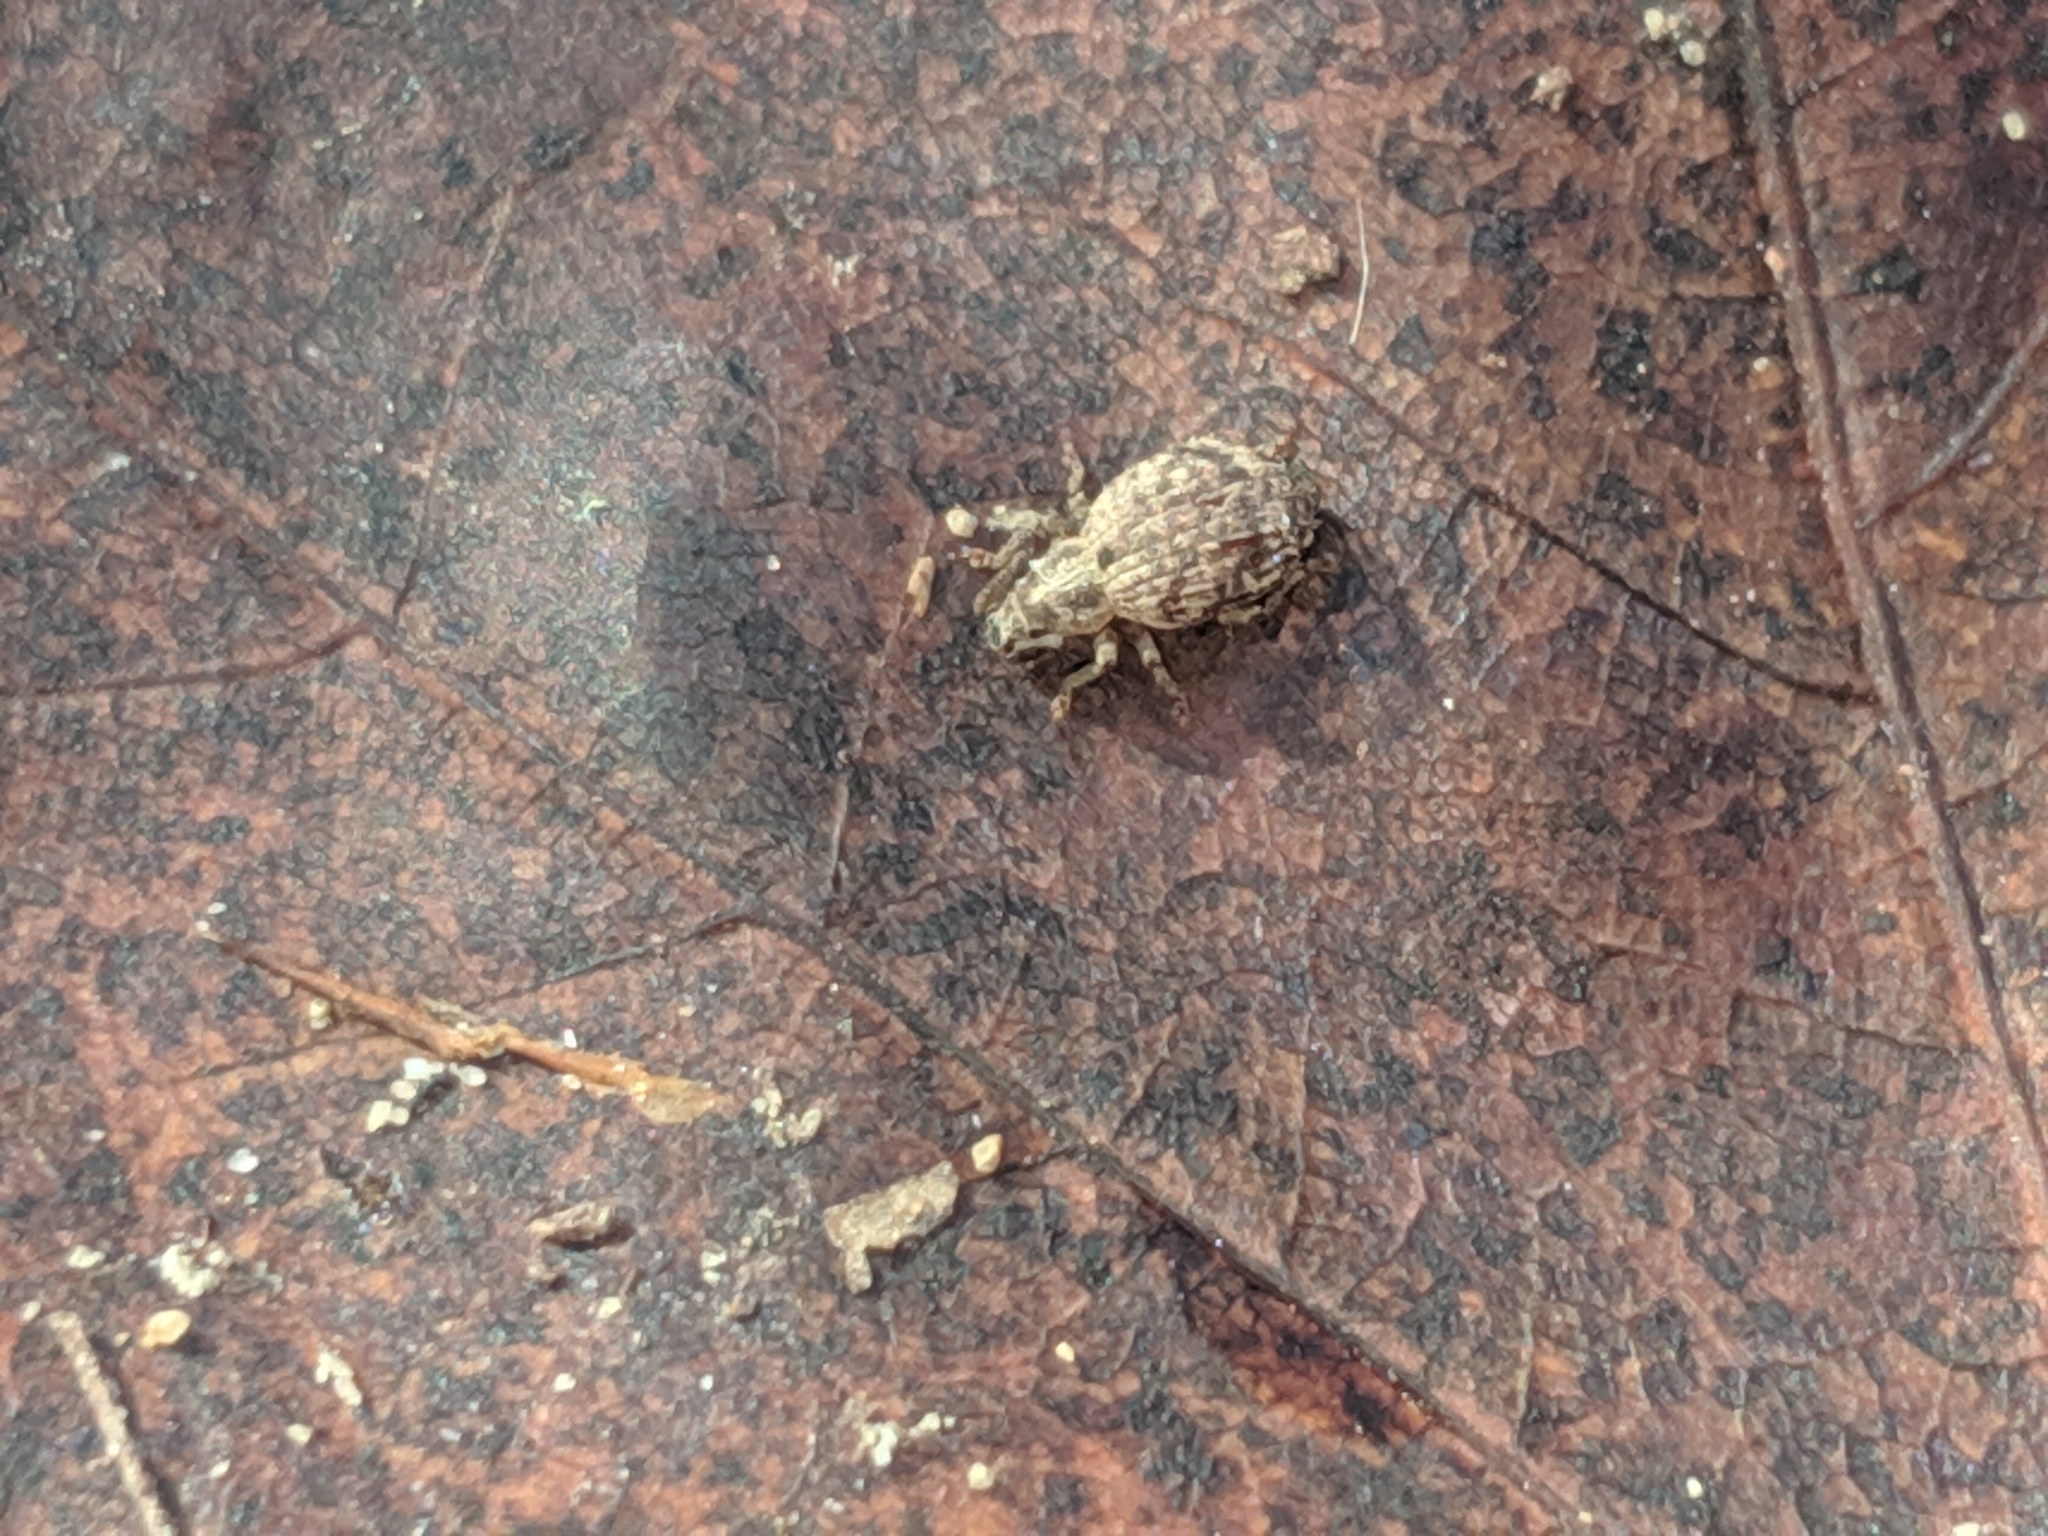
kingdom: Animalia
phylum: Arthropoda
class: Insecta
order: Coleoptera
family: Curculionidae
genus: Sciaphilus
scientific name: Sciaphilus asperatus
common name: Weevil
